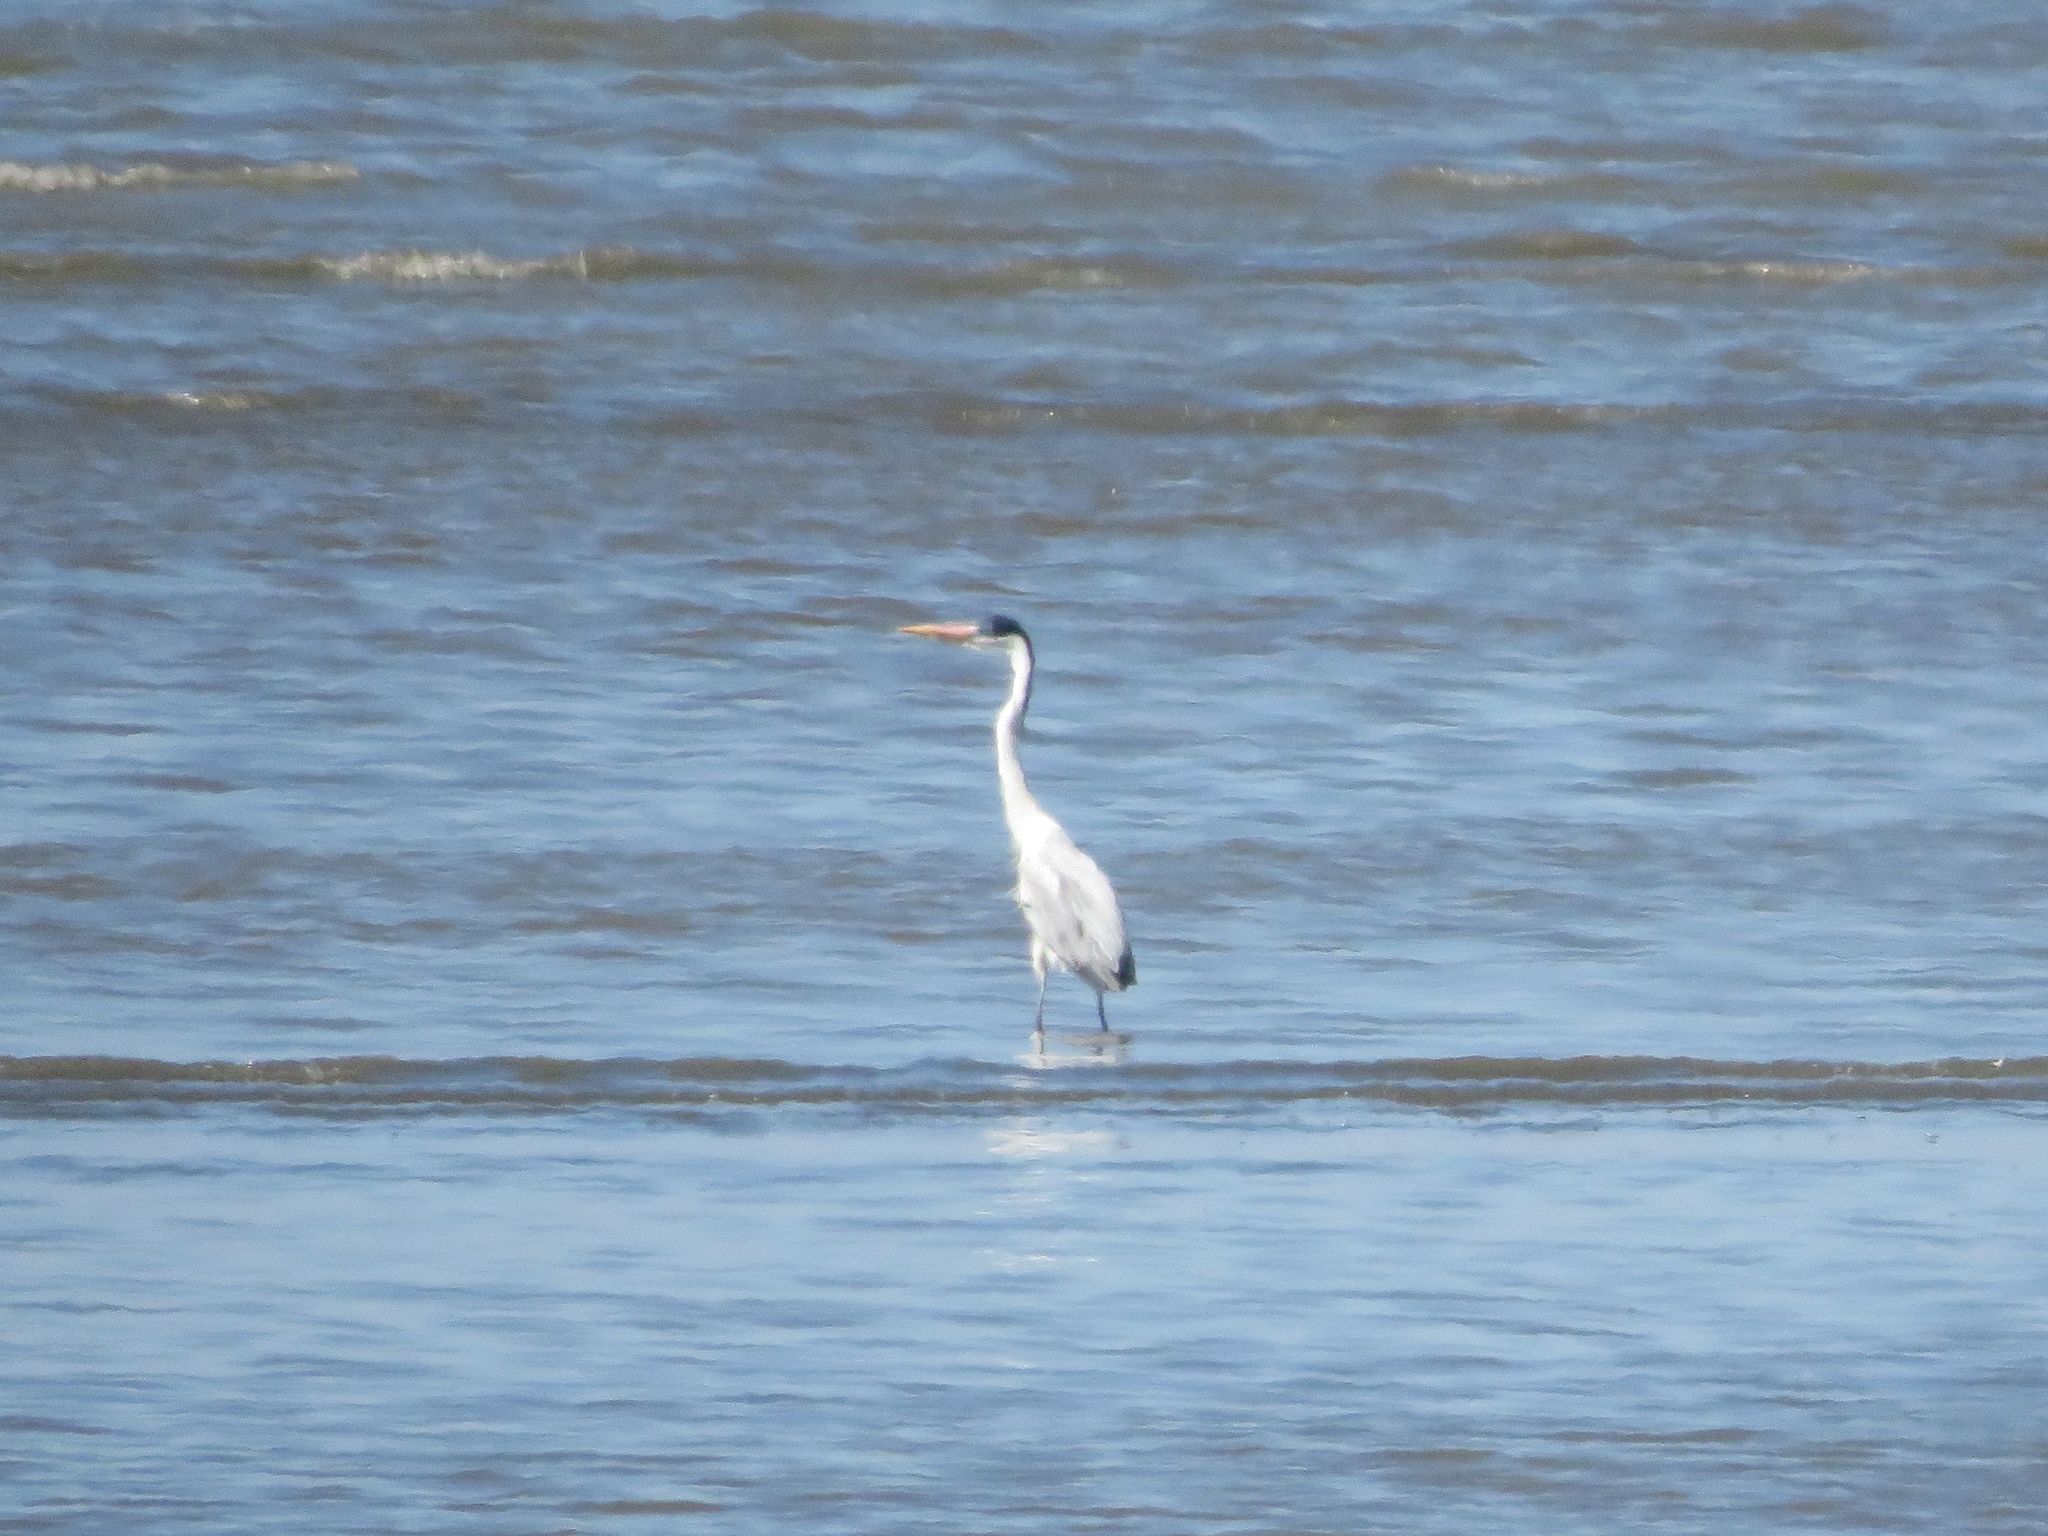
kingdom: Animalia
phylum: Chordata
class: Aves
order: Pelecaniformes
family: Ardeidae
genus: Ardea
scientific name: Ardea cocoi
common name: Cocoi heron
